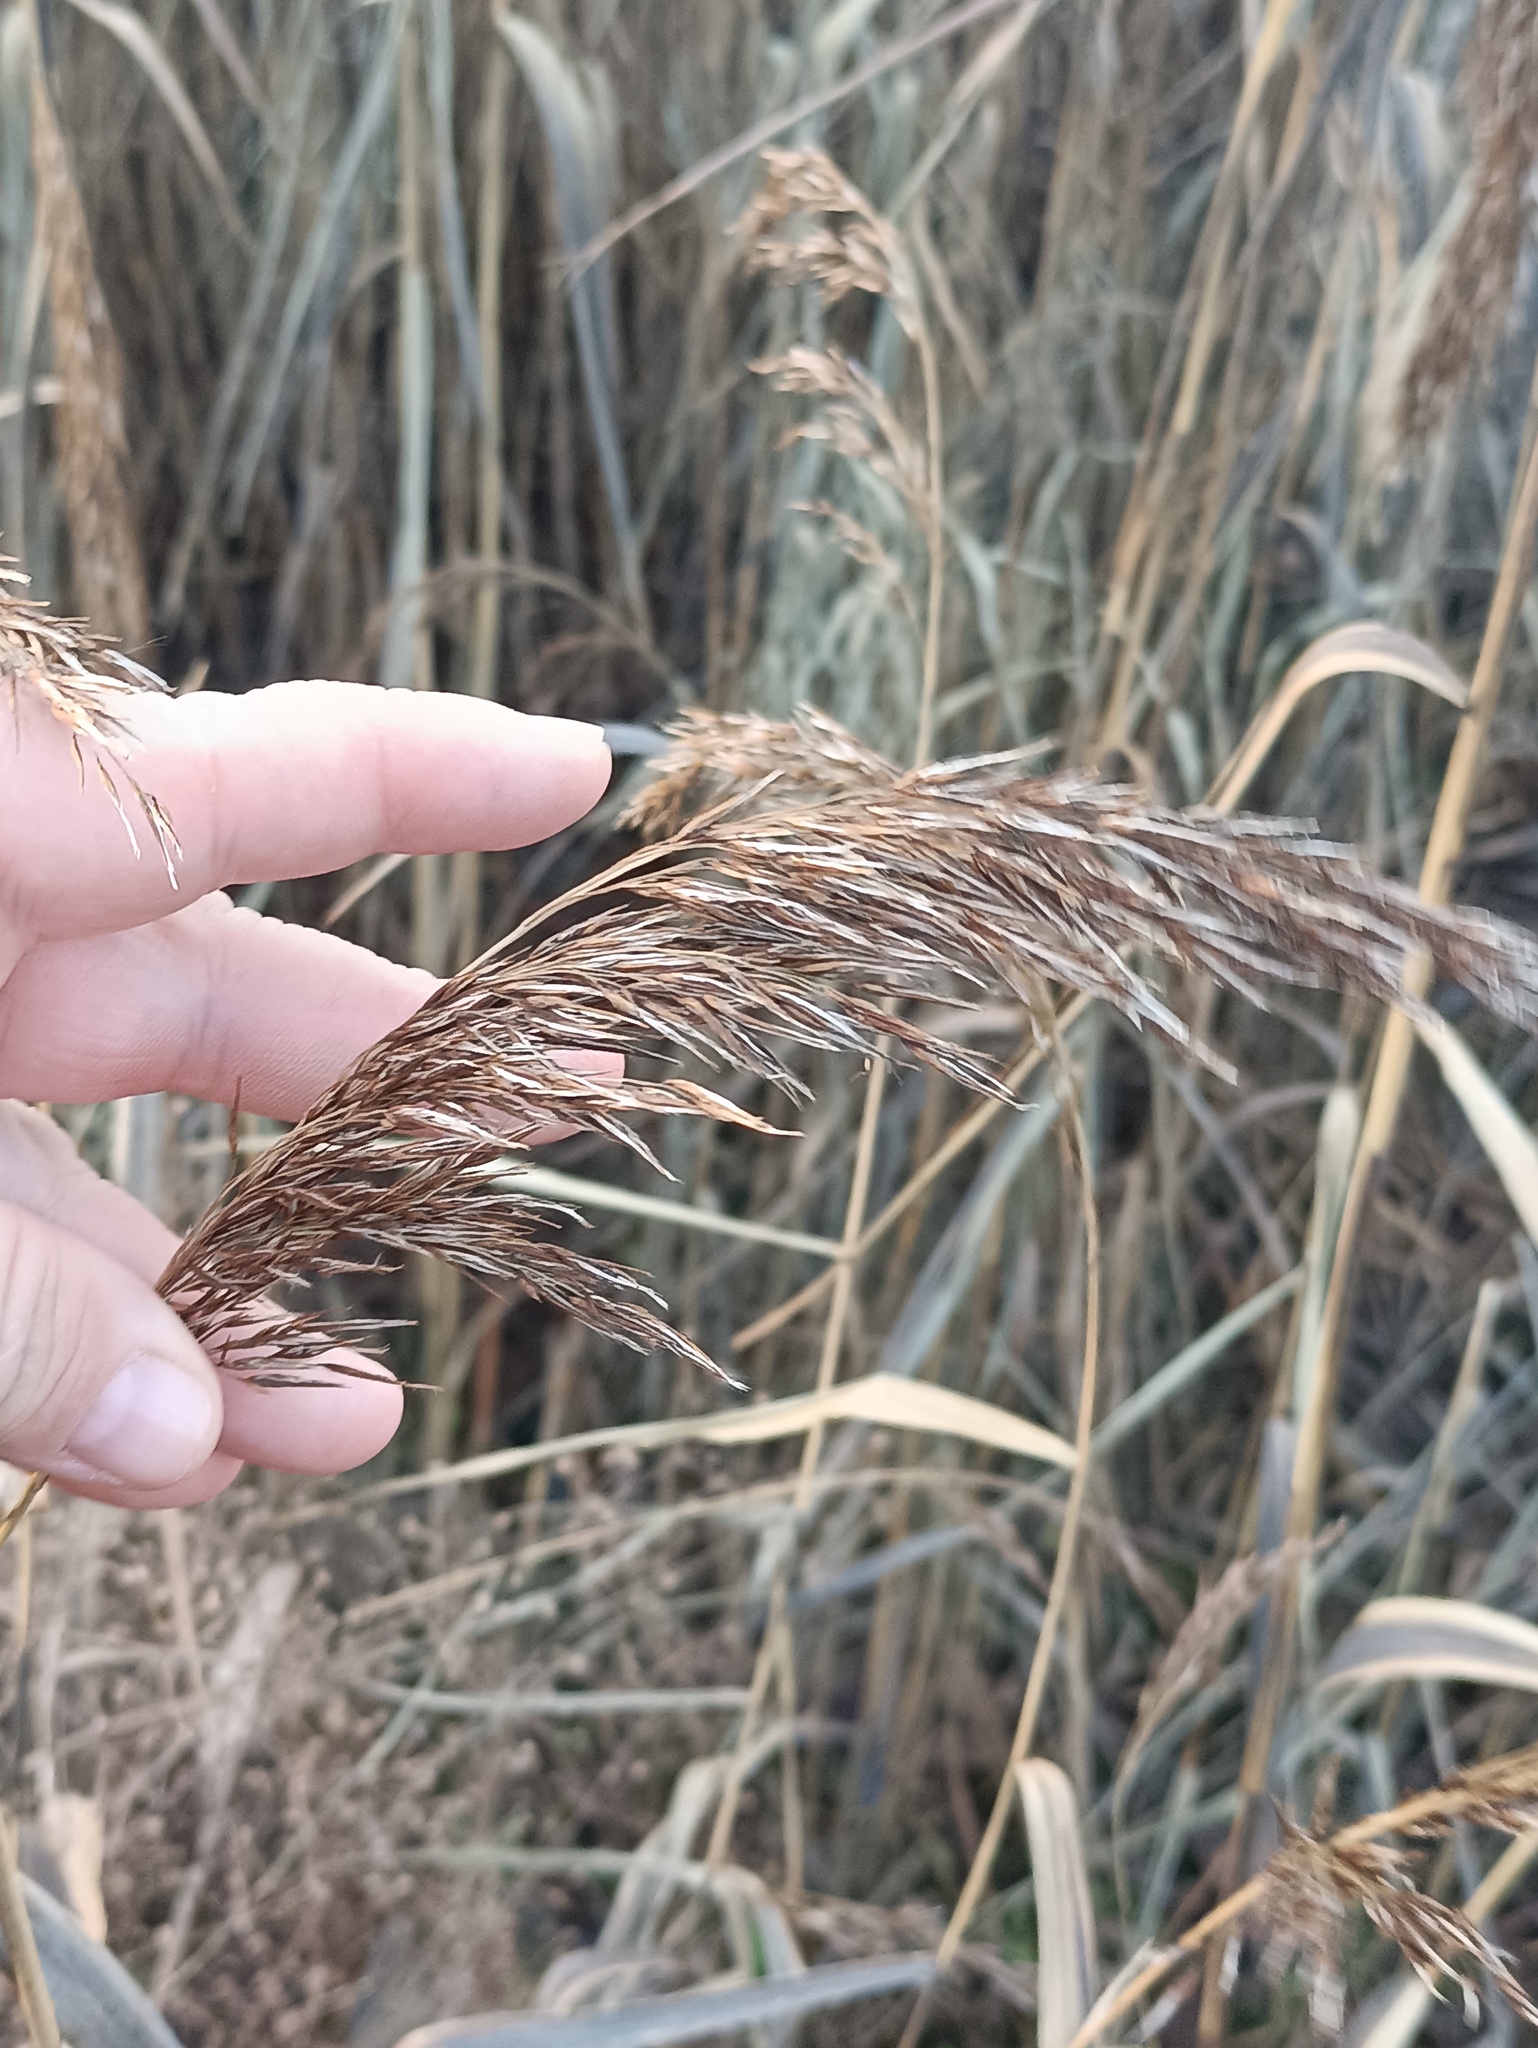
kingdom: Plantae
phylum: Tracheophyta
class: Liliopsida
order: Poales
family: Poaceae
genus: Phragmites
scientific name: Phragmites australis
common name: Common reed
